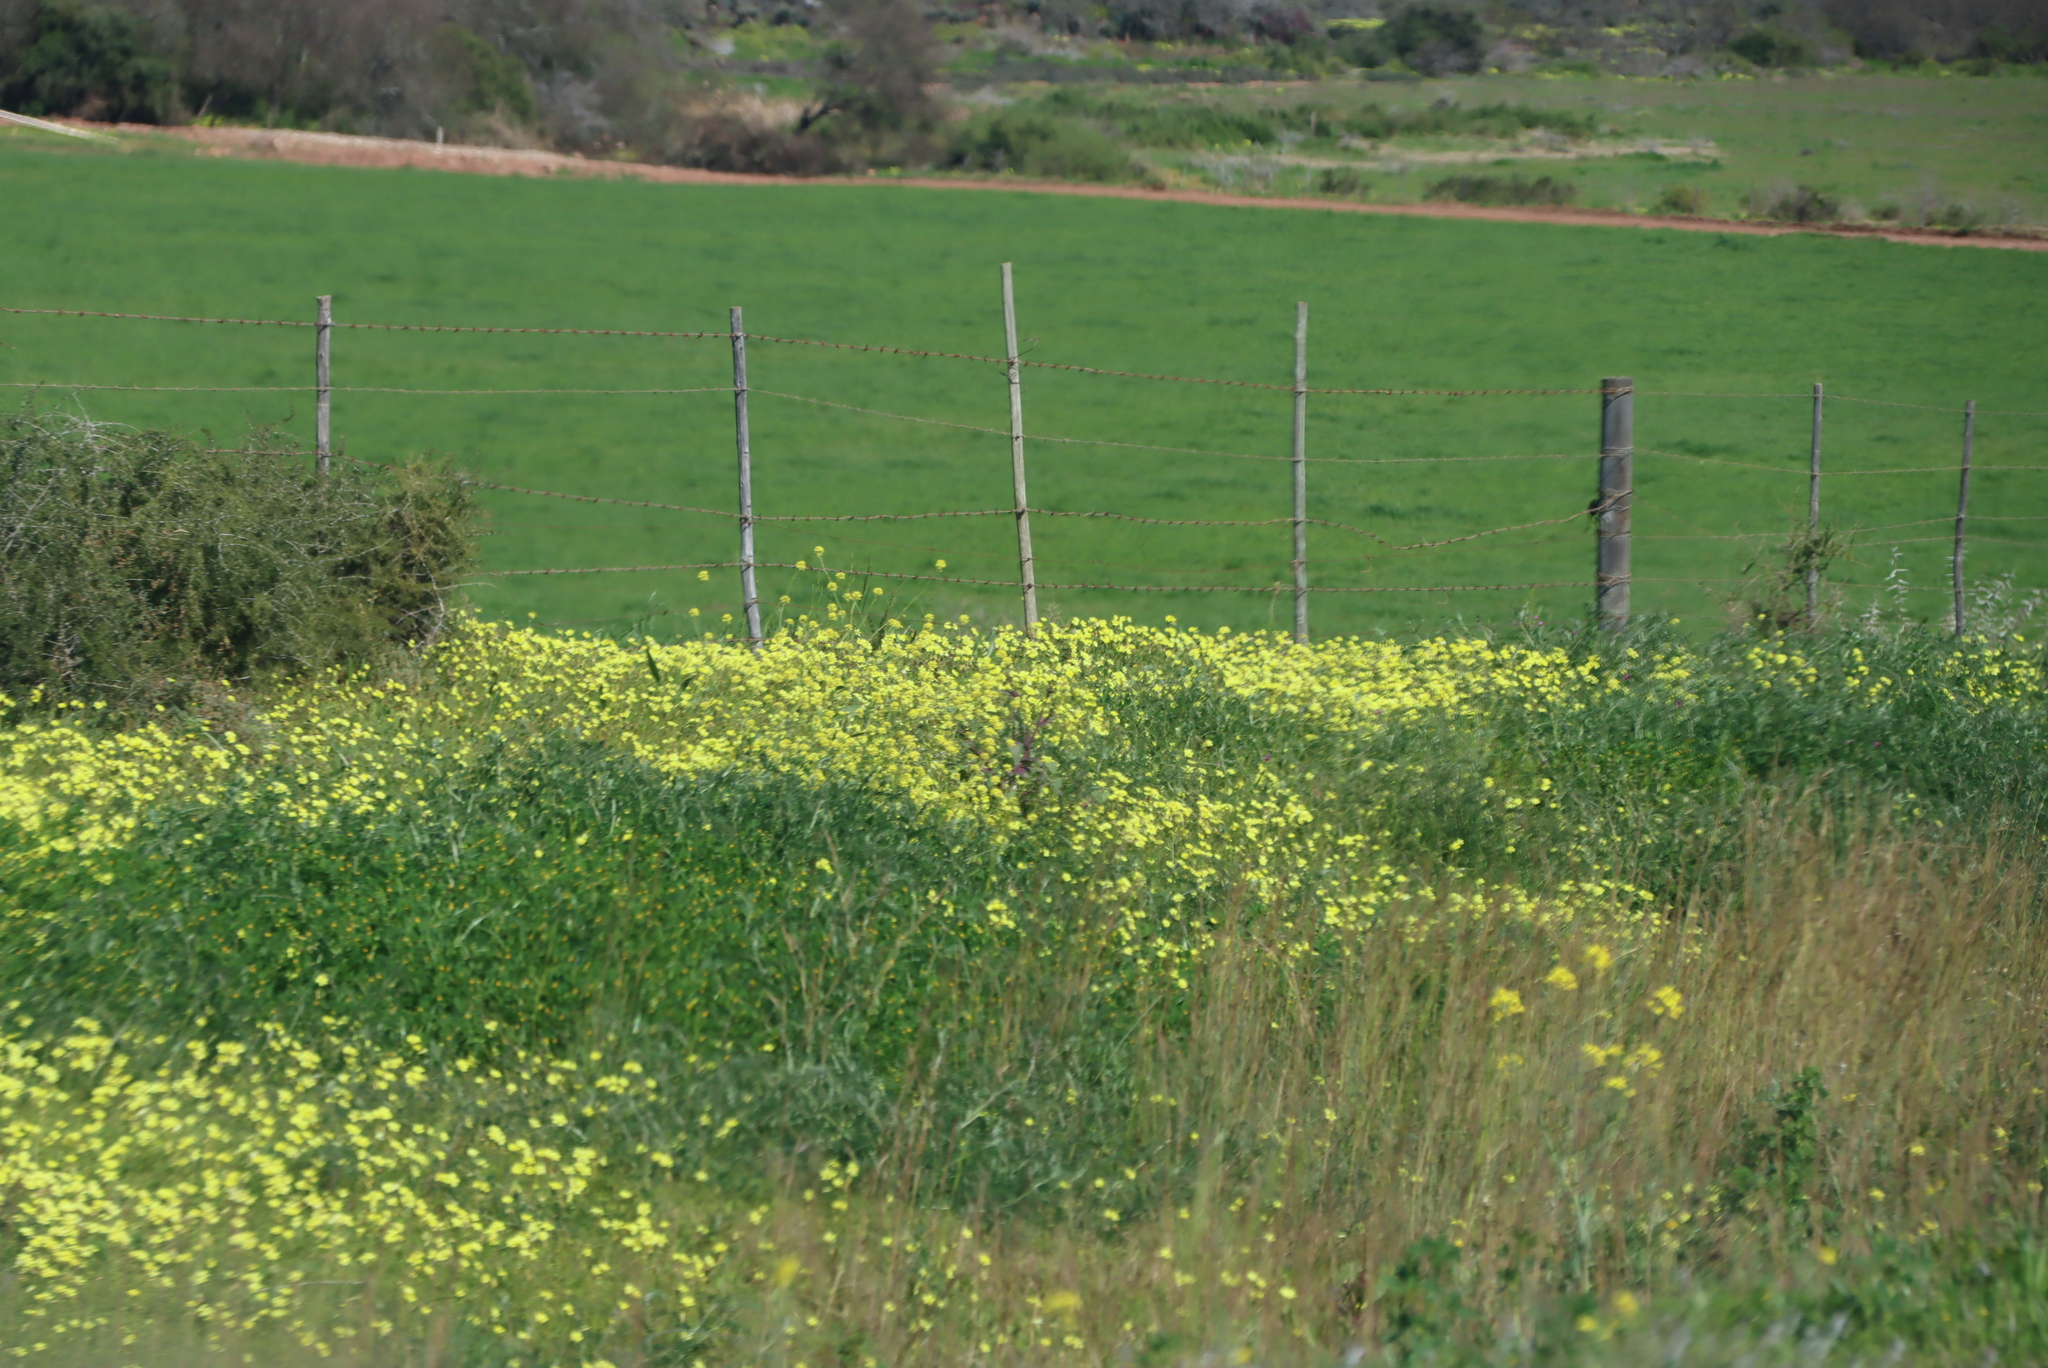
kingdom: Plantae
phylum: Tracheophyta
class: Magnoliopsida
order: Oxalidales
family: Oxalidaceae
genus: Oxalis
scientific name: Oxalis pes-caprae
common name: Bermuda-buttercup
